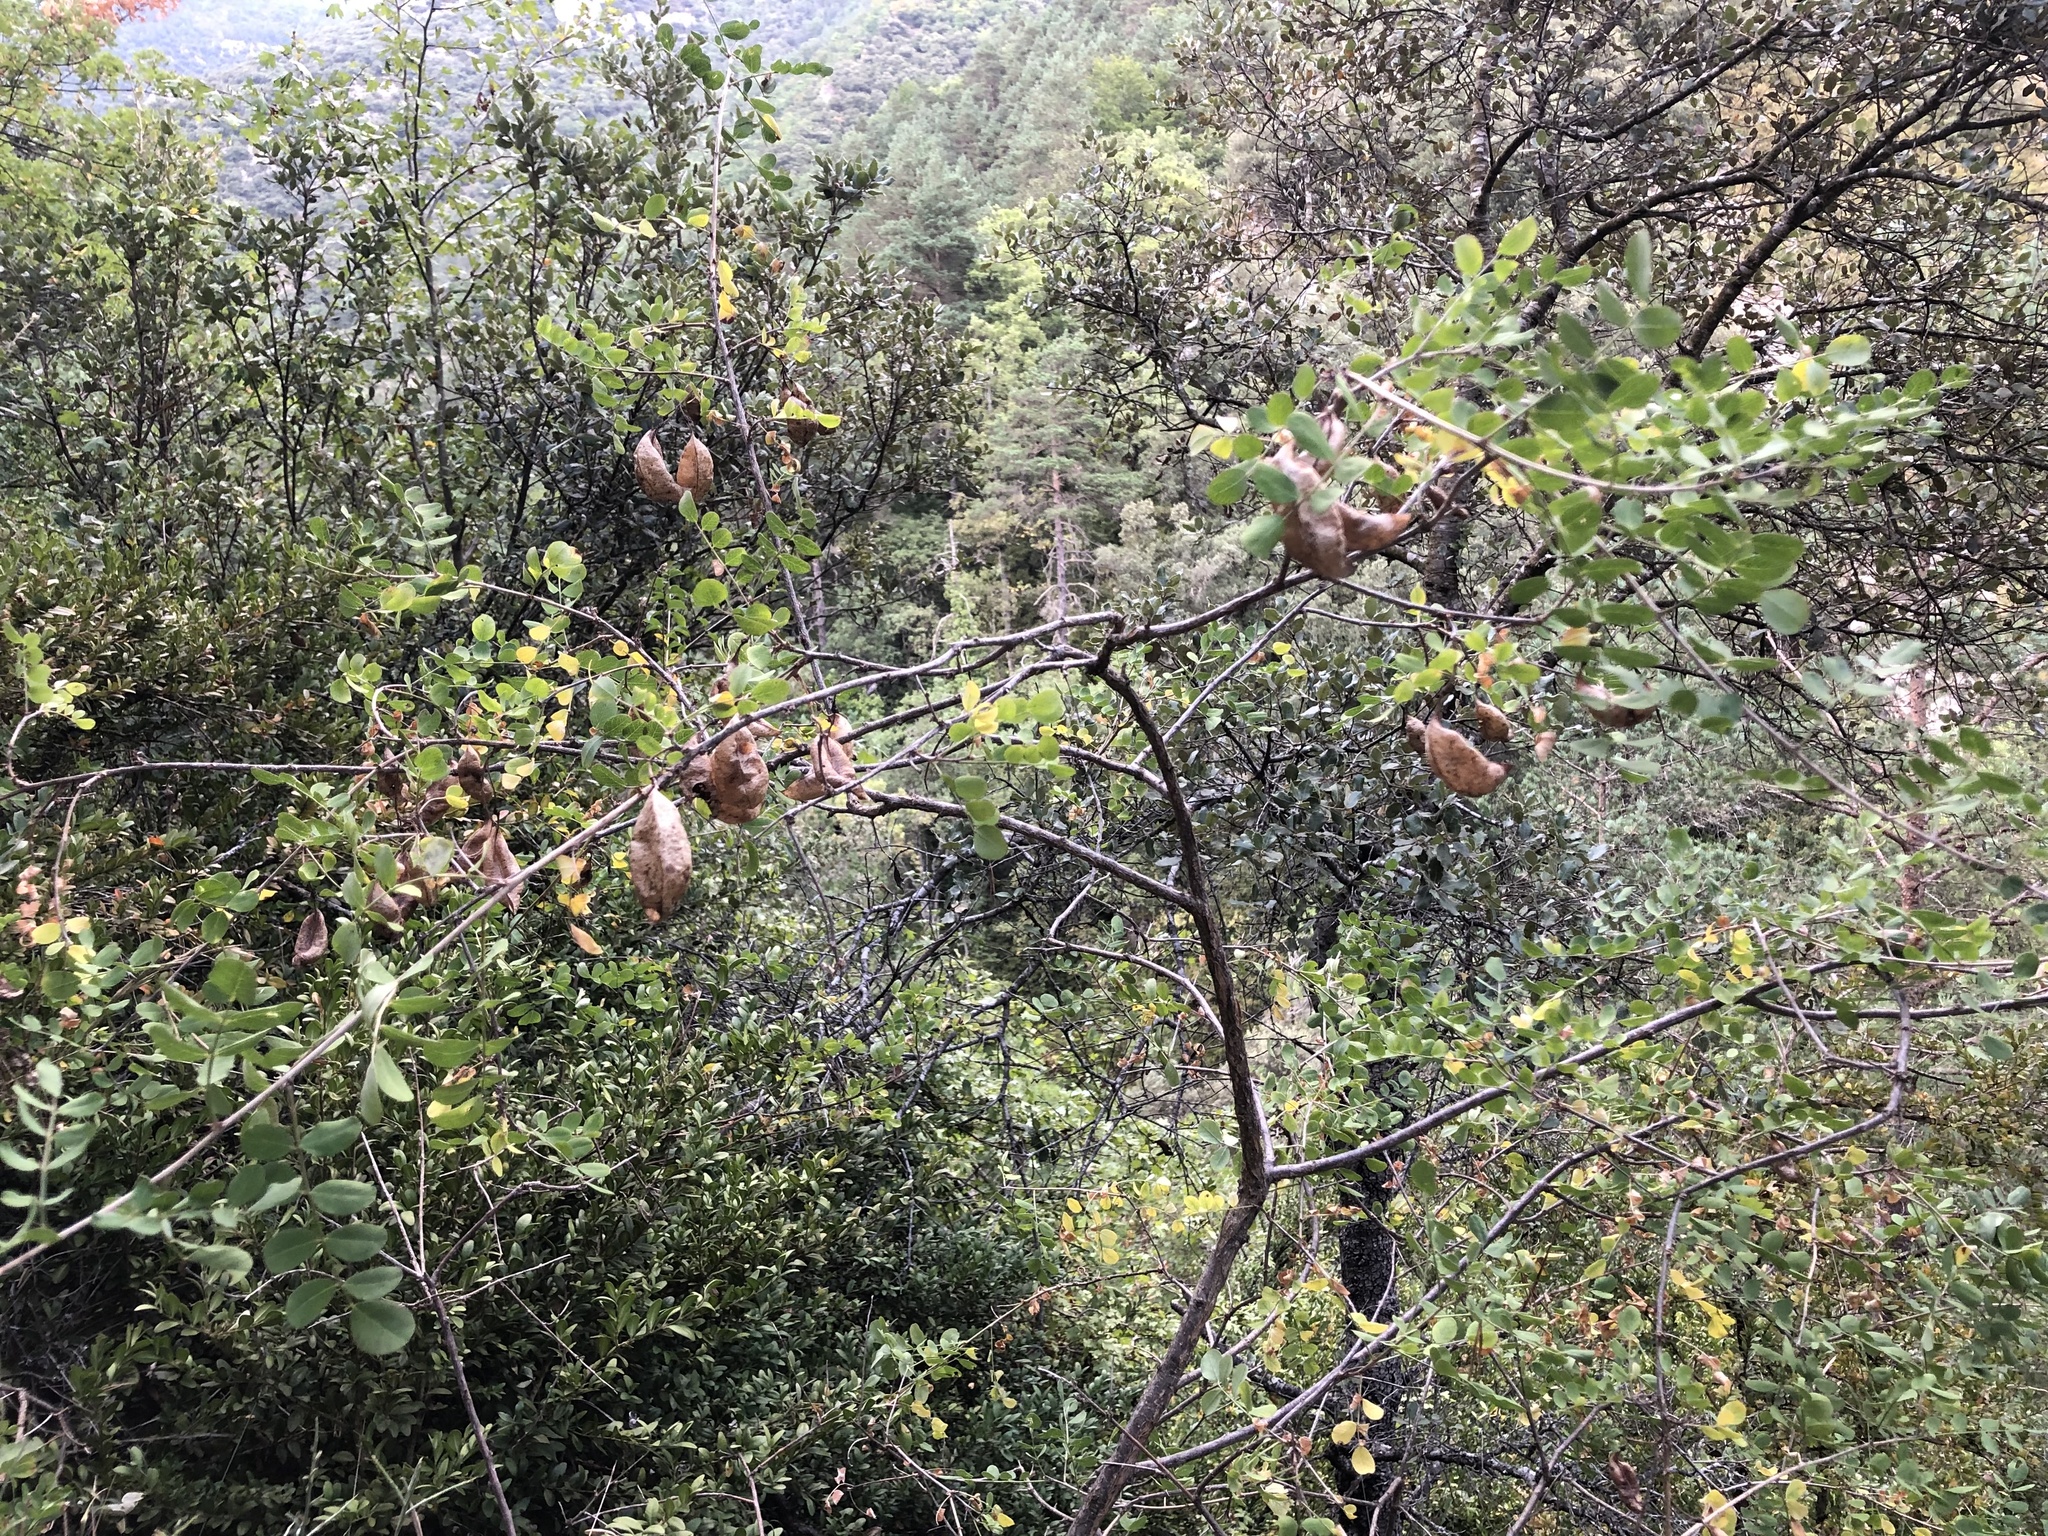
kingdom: Plantae
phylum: Tracheophyta
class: Magnoliopsida
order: Fabales
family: Fabaceae
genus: Colutea
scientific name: Colutea arborescens
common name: Bladder-senna
